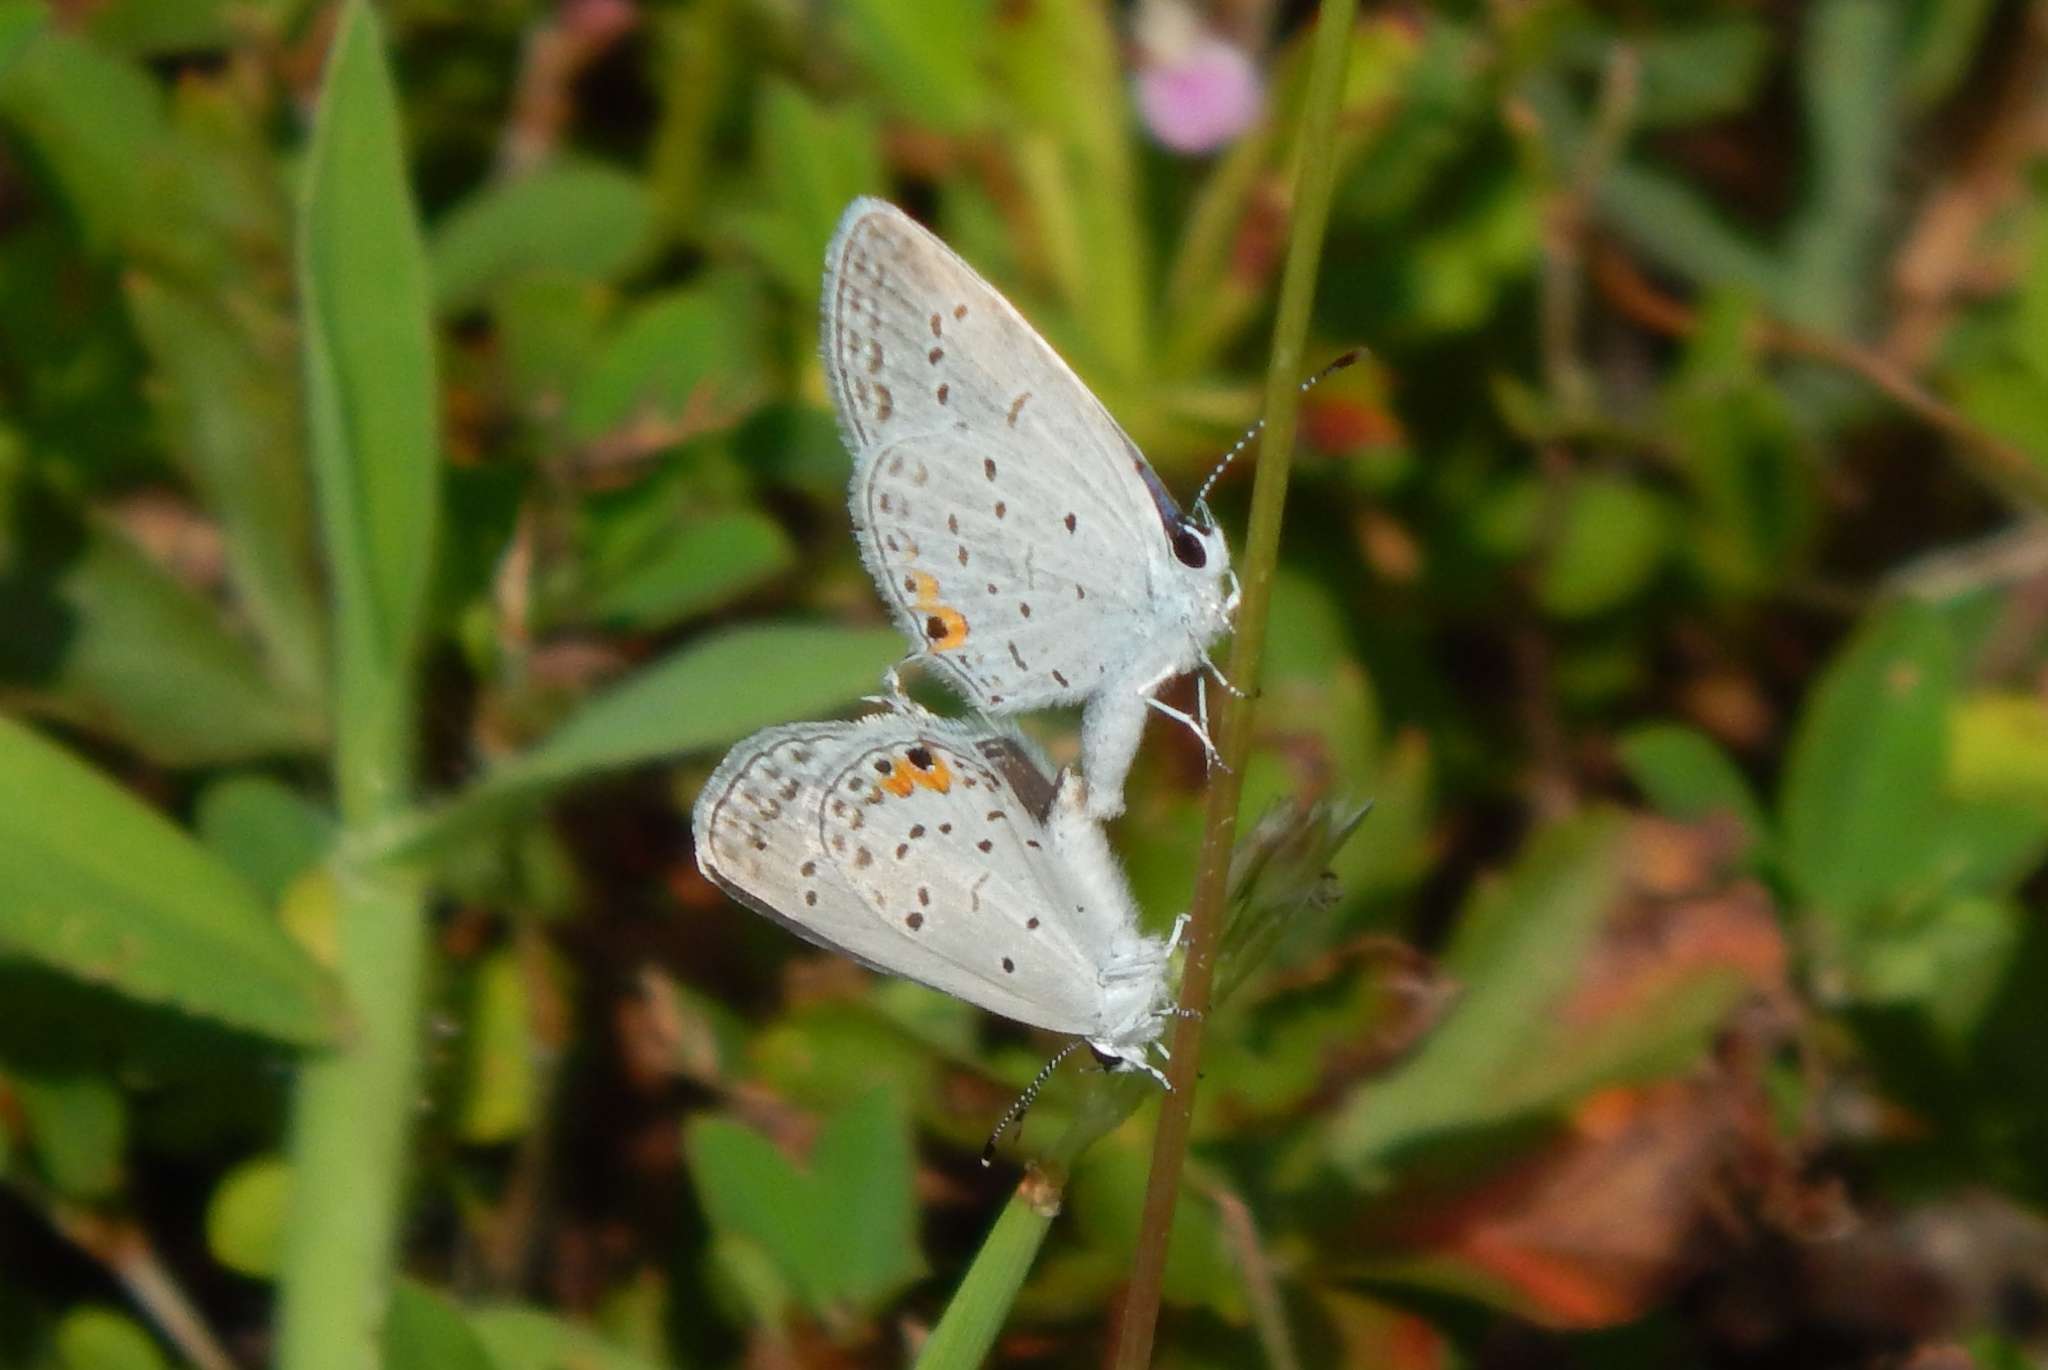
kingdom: Animalia
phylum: Arthropoda
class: Insecta
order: Lepidoptera
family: Lycaenidae
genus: Elkalyce
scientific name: Elkalyce comyntas
